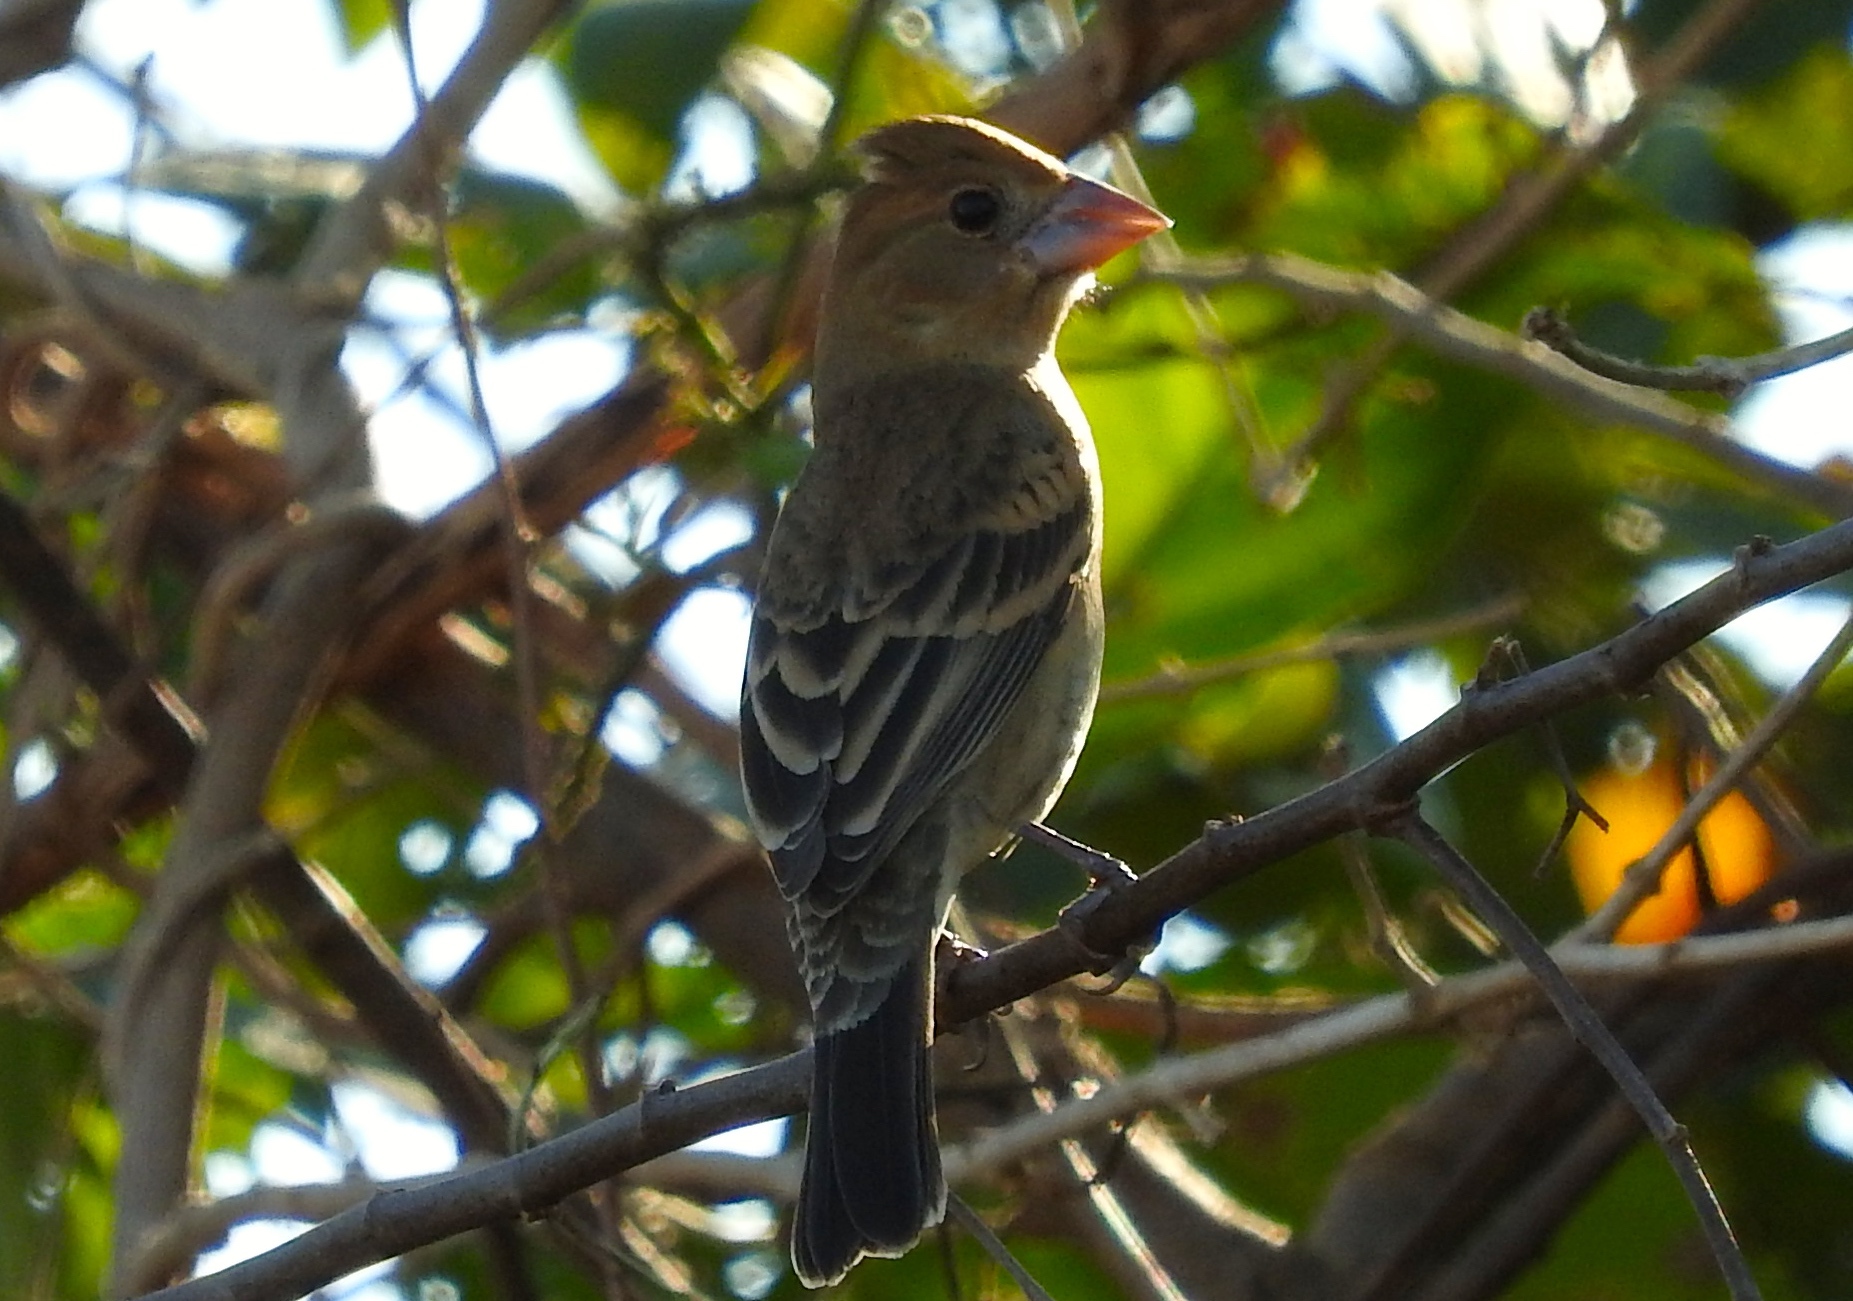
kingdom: Animalia
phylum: Chordata
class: Aves
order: Passeriformes
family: Cardinalidae
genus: Passerina
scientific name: Passerina caerulea
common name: Blue grosbeak
